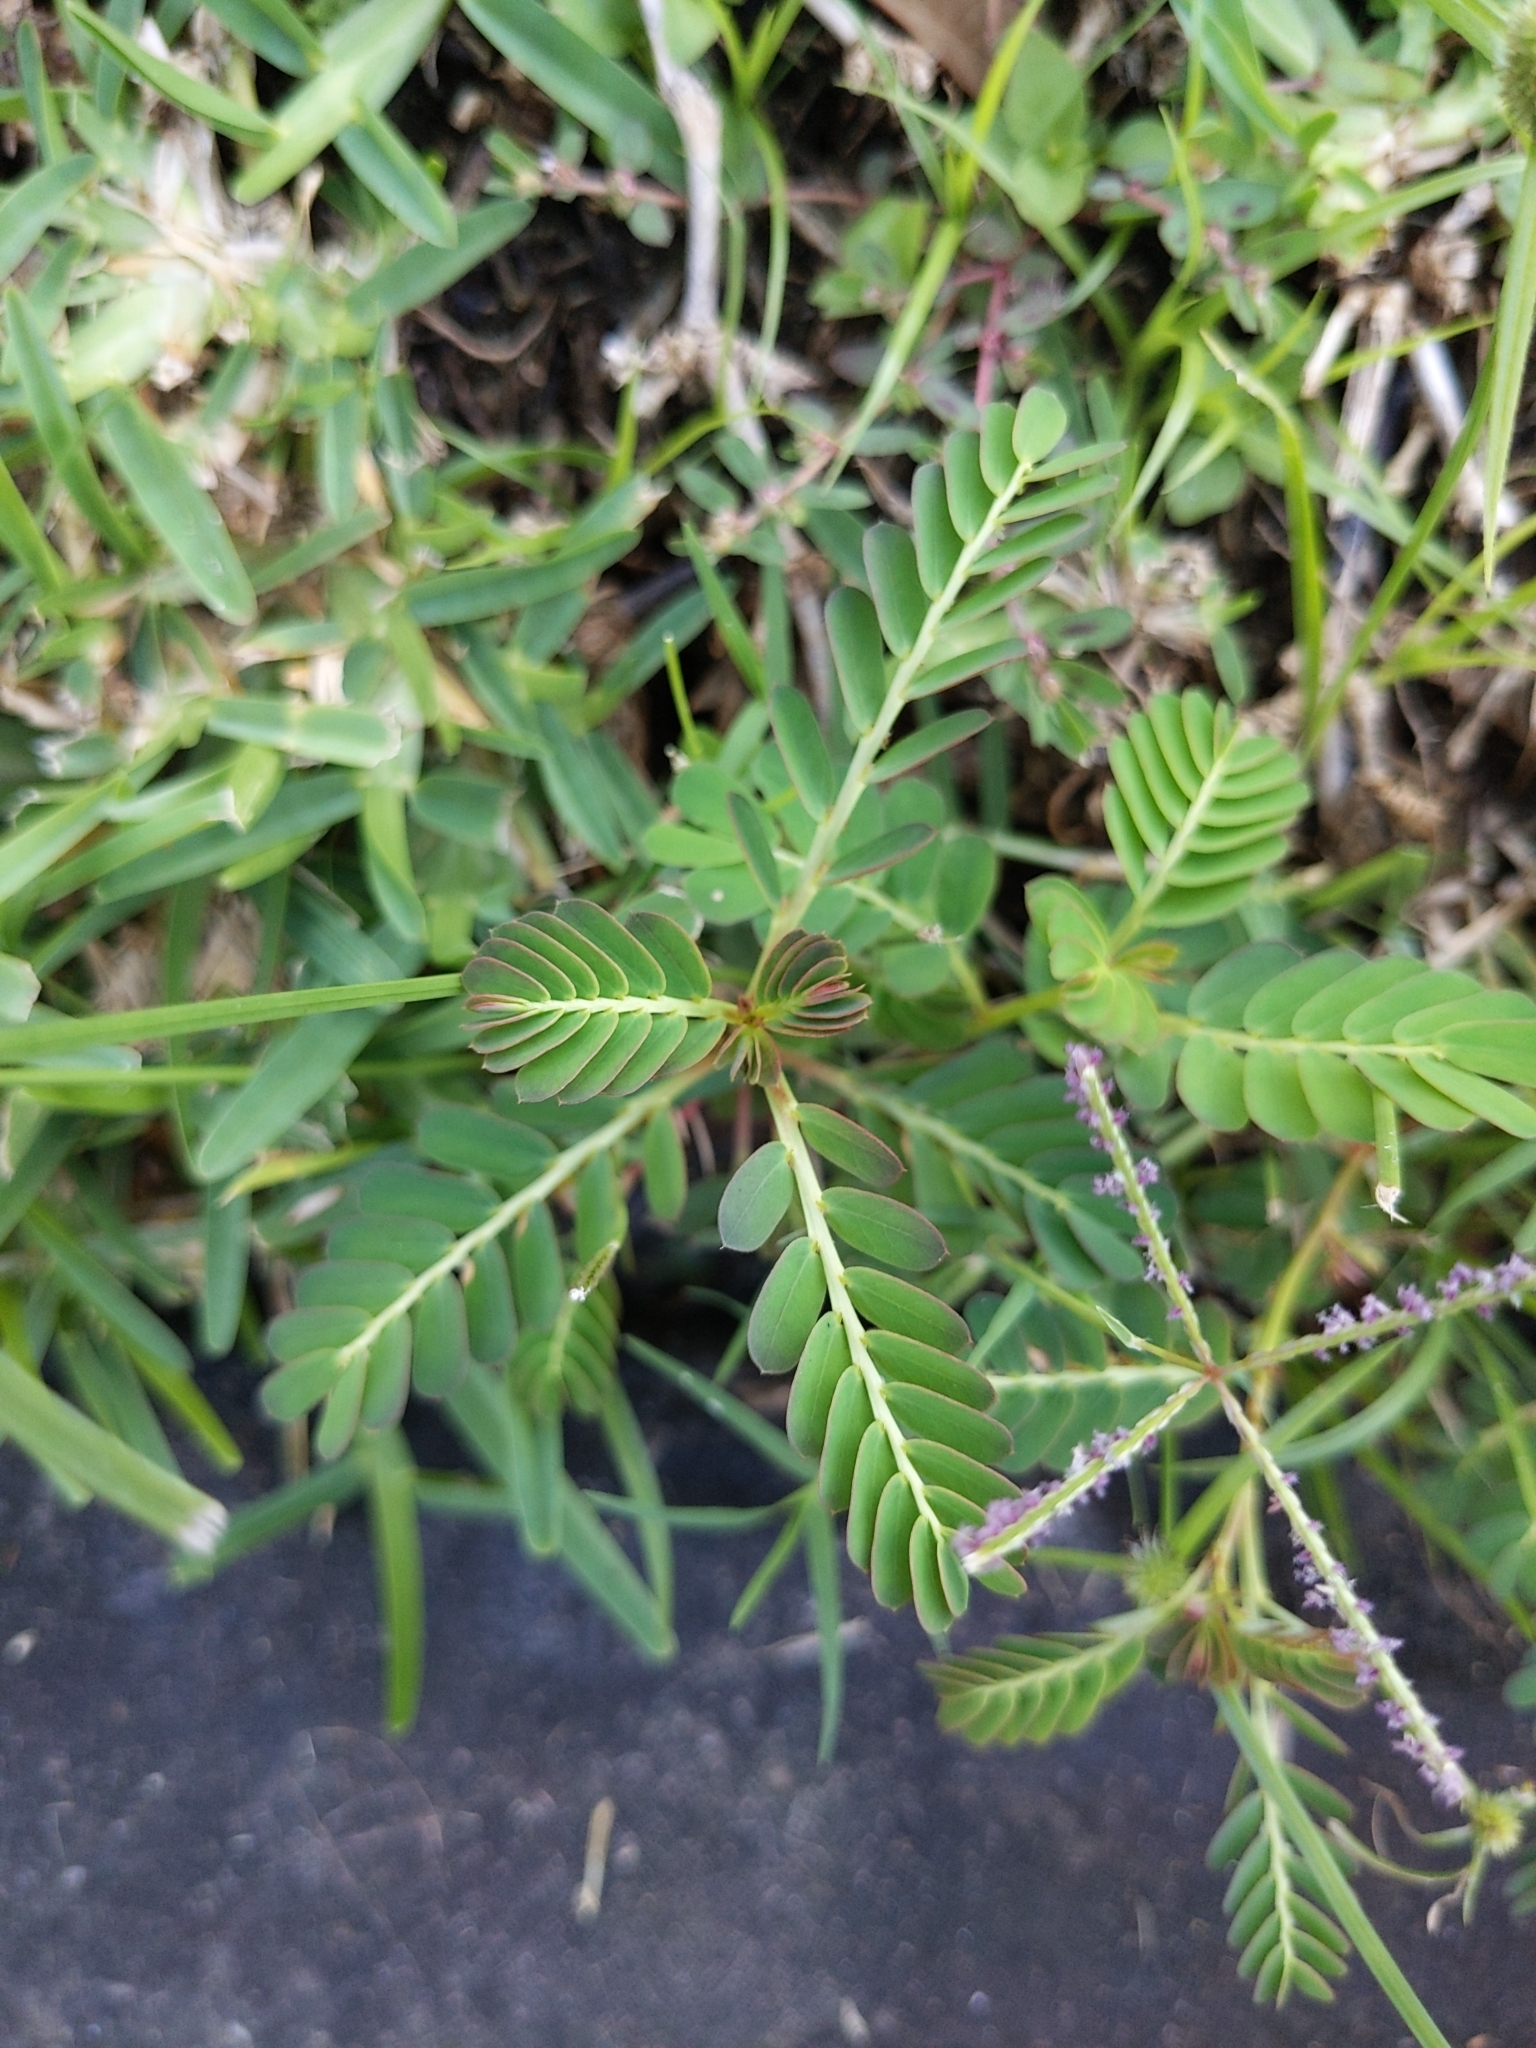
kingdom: Plantae
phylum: Tracheophyta
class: Magnoliopsida
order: Malpighiales
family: Phyllanthaceae
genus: Phyllanthus
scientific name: Phyllanthus urinaria
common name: Chamber bitter
